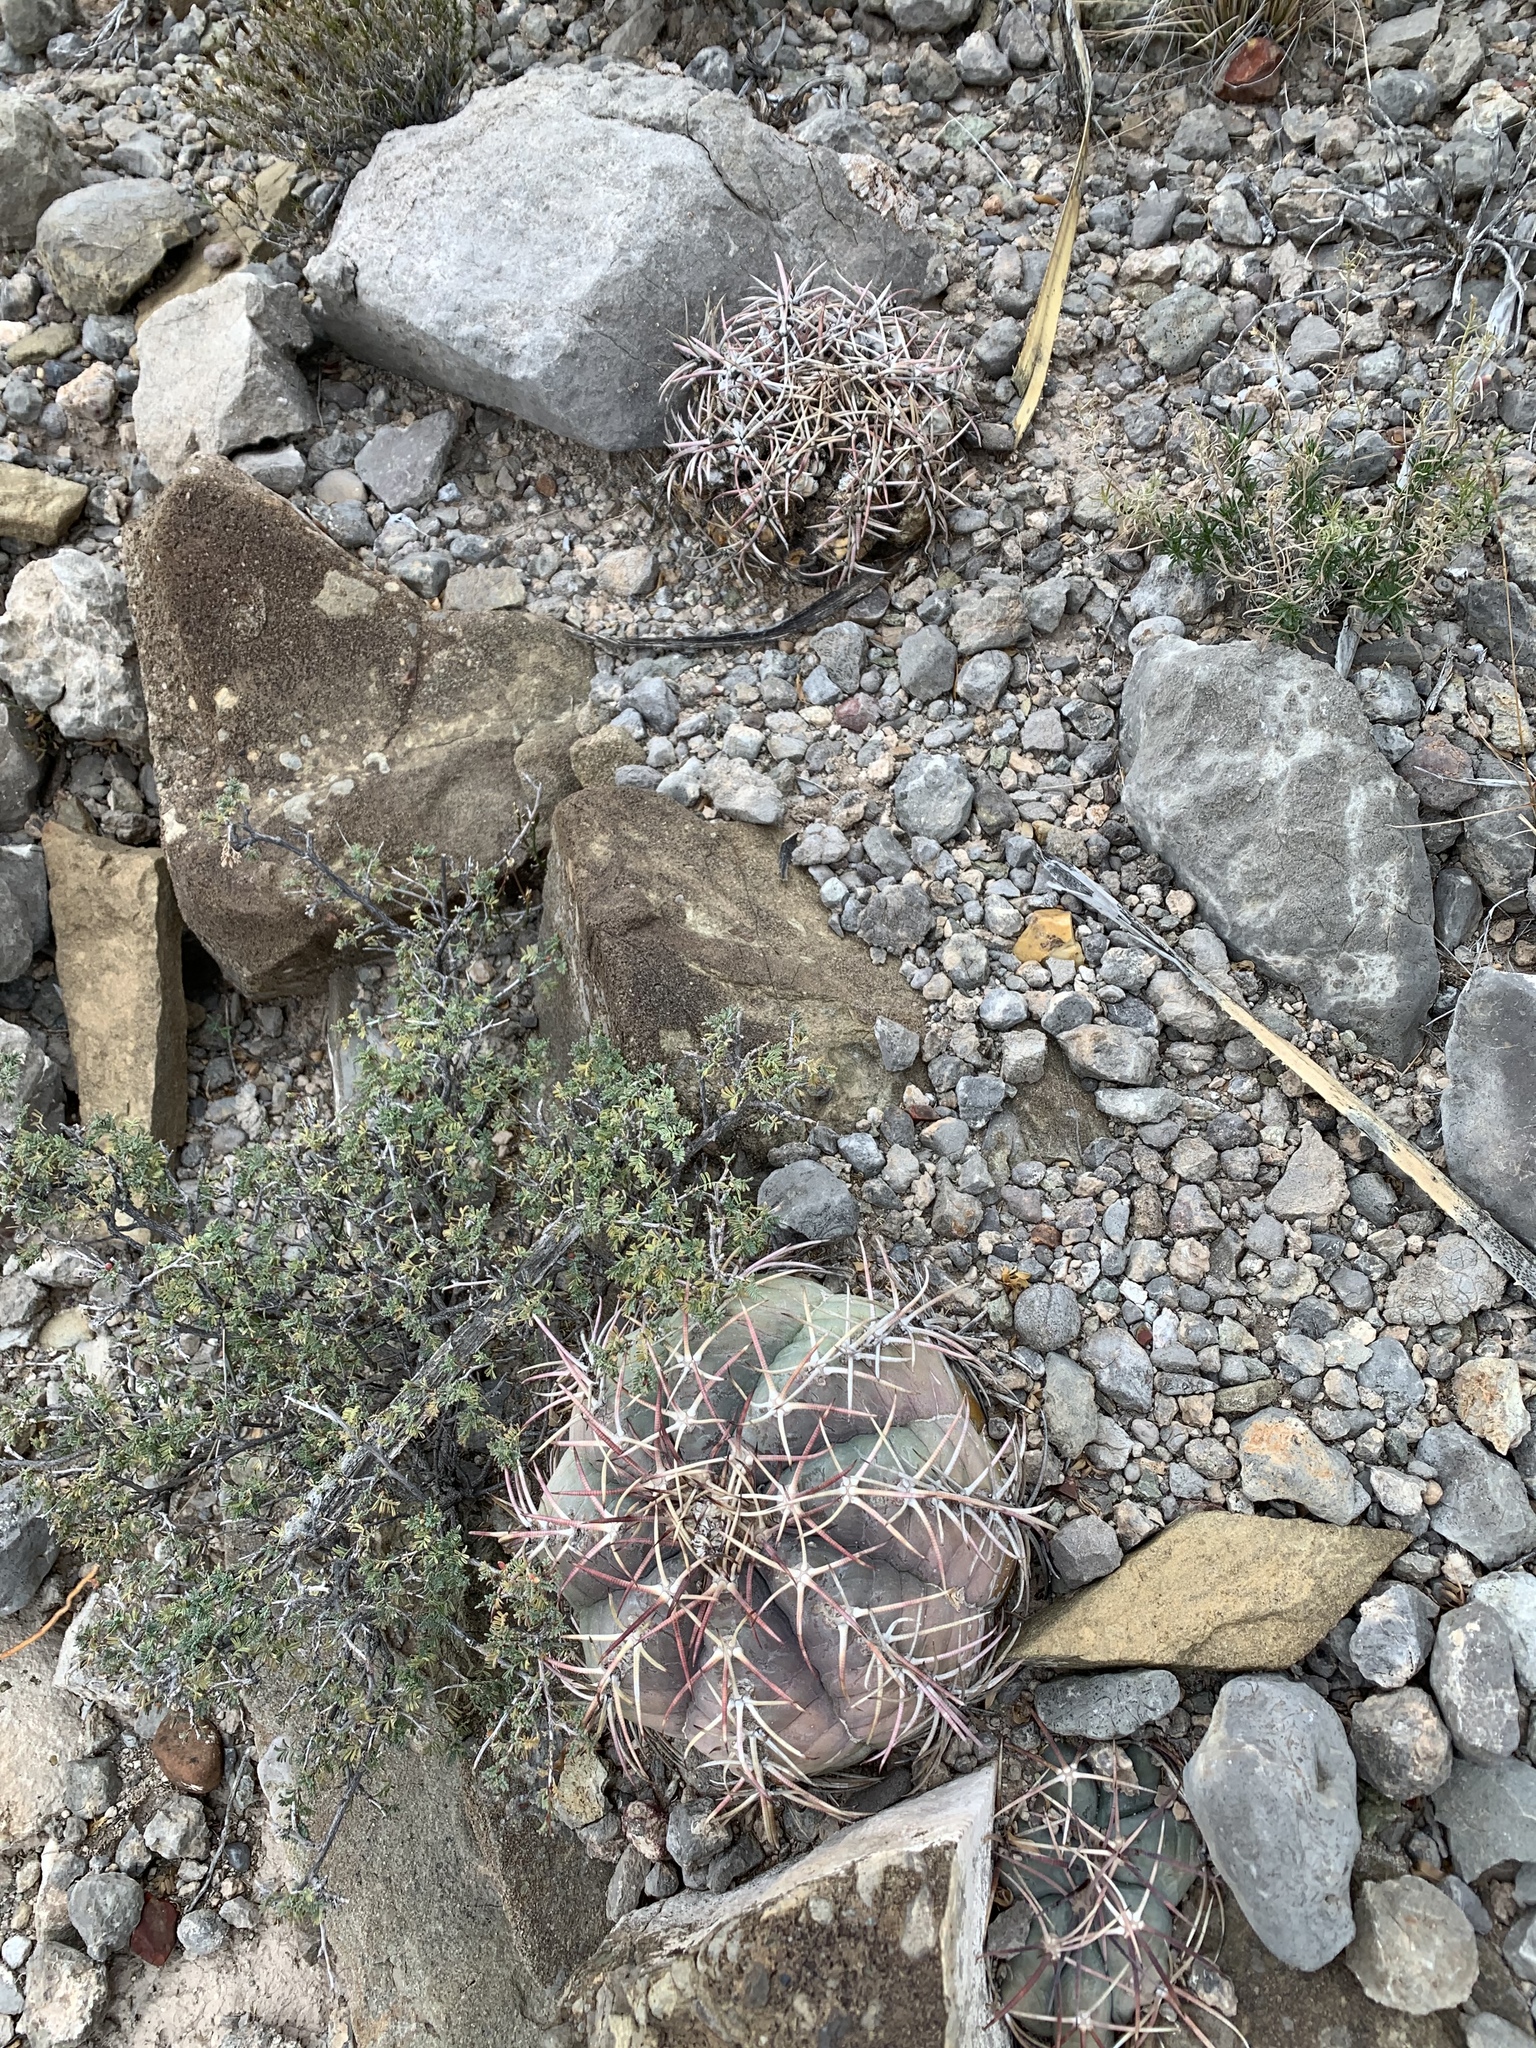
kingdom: Plantae
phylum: Tracheophyta
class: Magnoliopsida
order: Caryophyllales
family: Cactaceae
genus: Echinocactus
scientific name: Echinocactus horizonthalonius
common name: Devilshead
